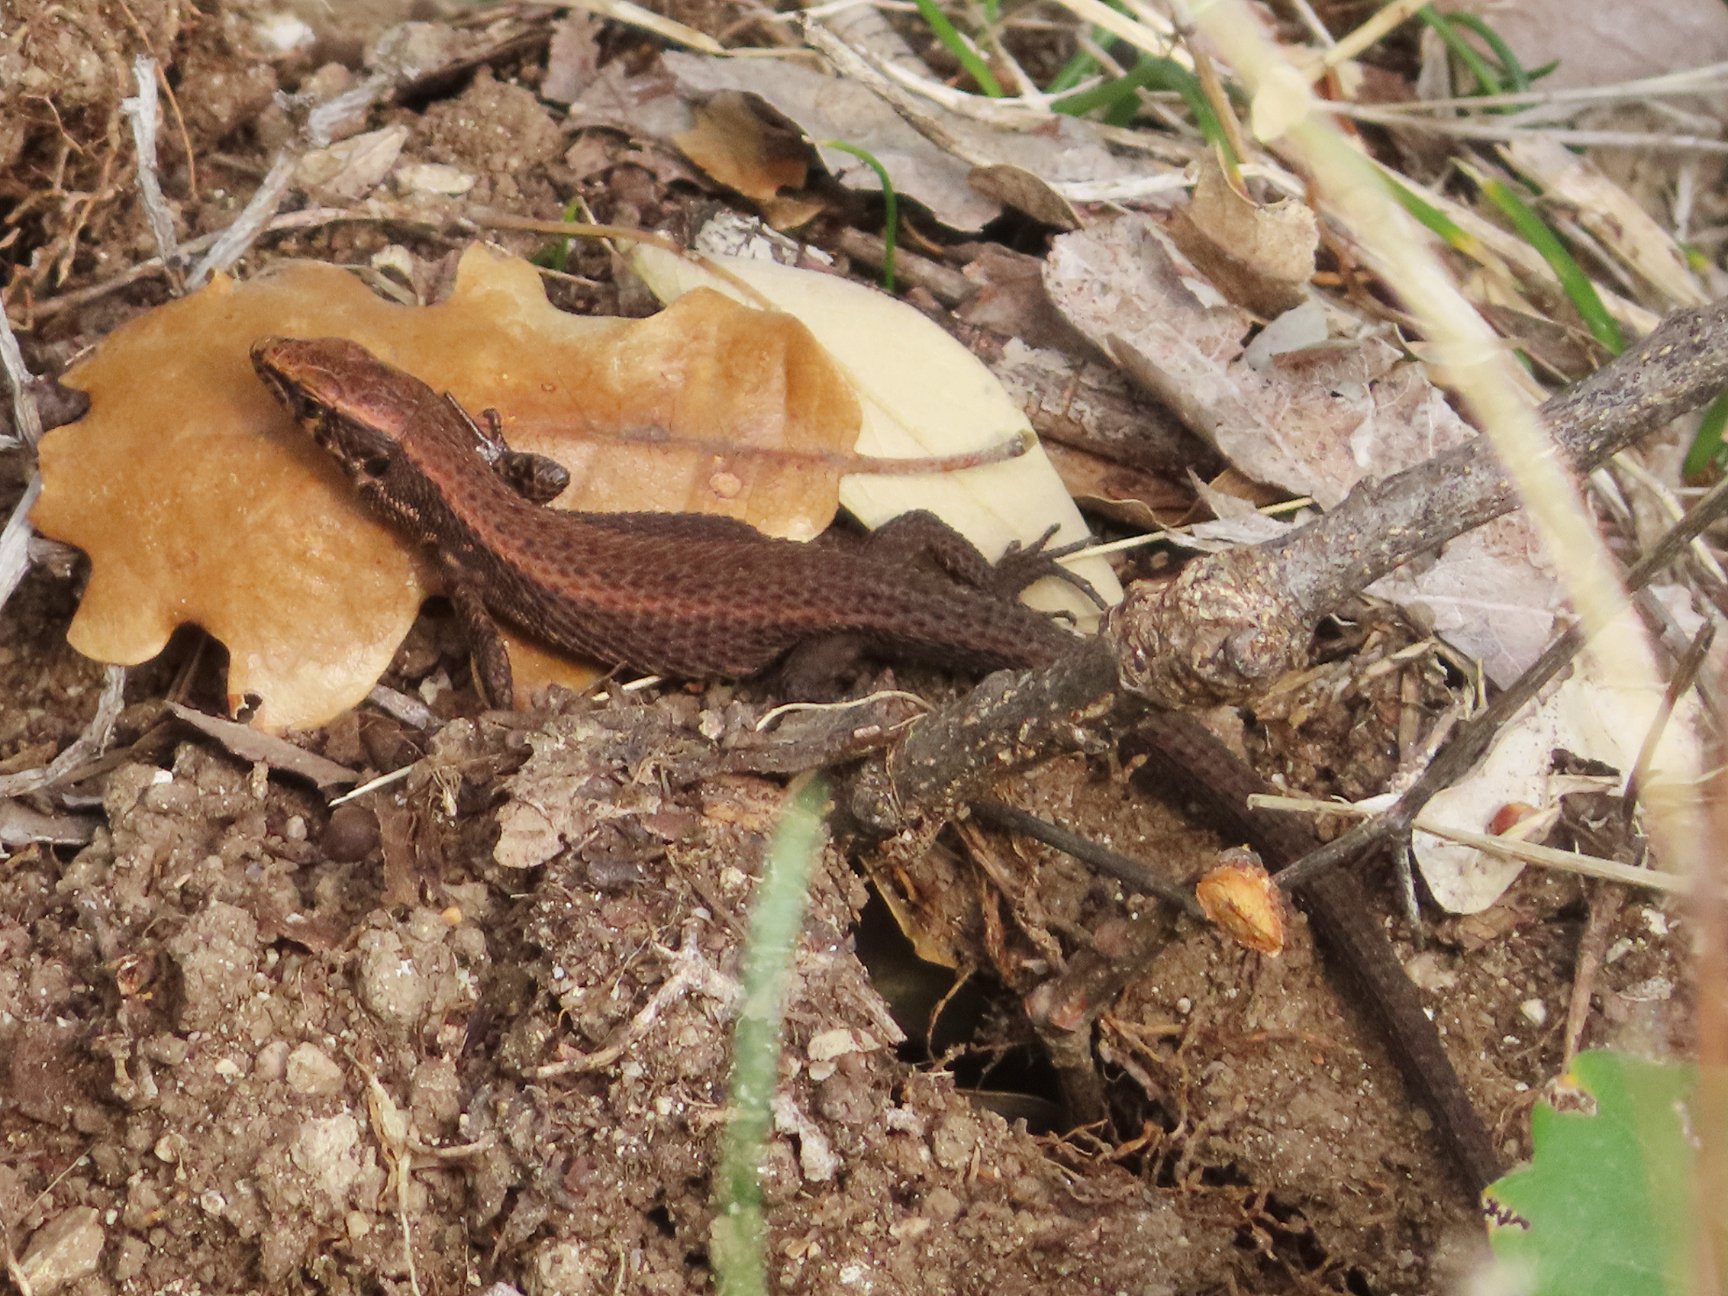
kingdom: Animalia
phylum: Chordata
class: Squamata
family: Lacertidae
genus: Algyroides
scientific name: Algyroides moreoticus
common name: Greek algyroides
